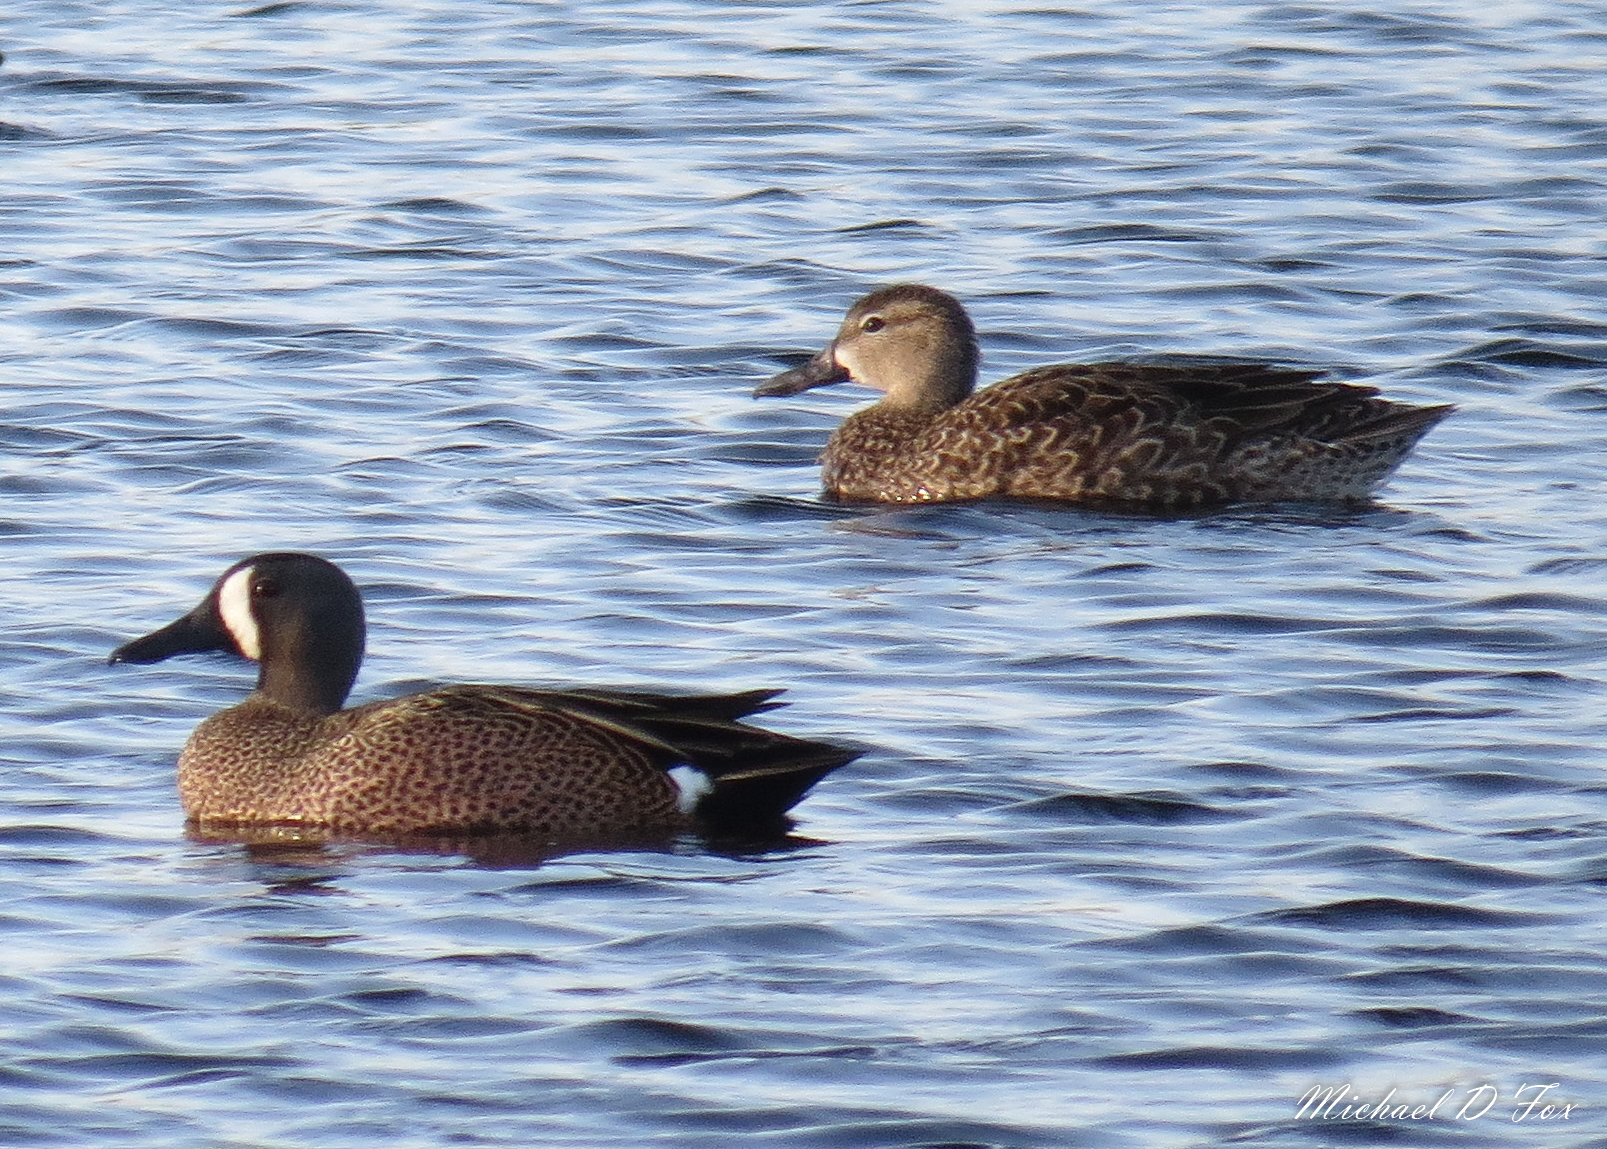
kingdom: Animalia
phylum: Chordata
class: Aves
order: Anseriformes
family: Anatidae
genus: Spatula
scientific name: Spatula discors
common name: Blue-winged teal
